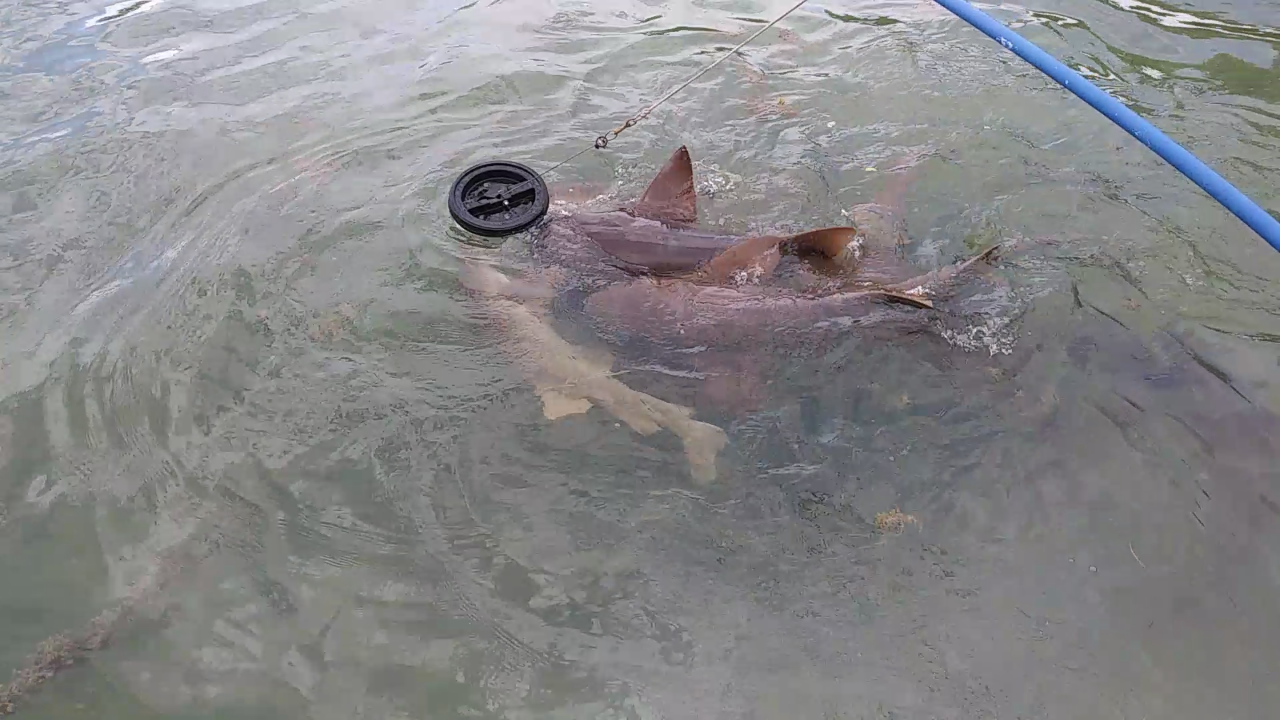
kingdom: Animalia
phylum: Chordata
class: Elasmobranchii
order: Orectolobiformes
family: Ginglymostomatidae
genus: Ginglymostoma
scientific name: Ginglymostoma cirratum
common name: Nurse shark
